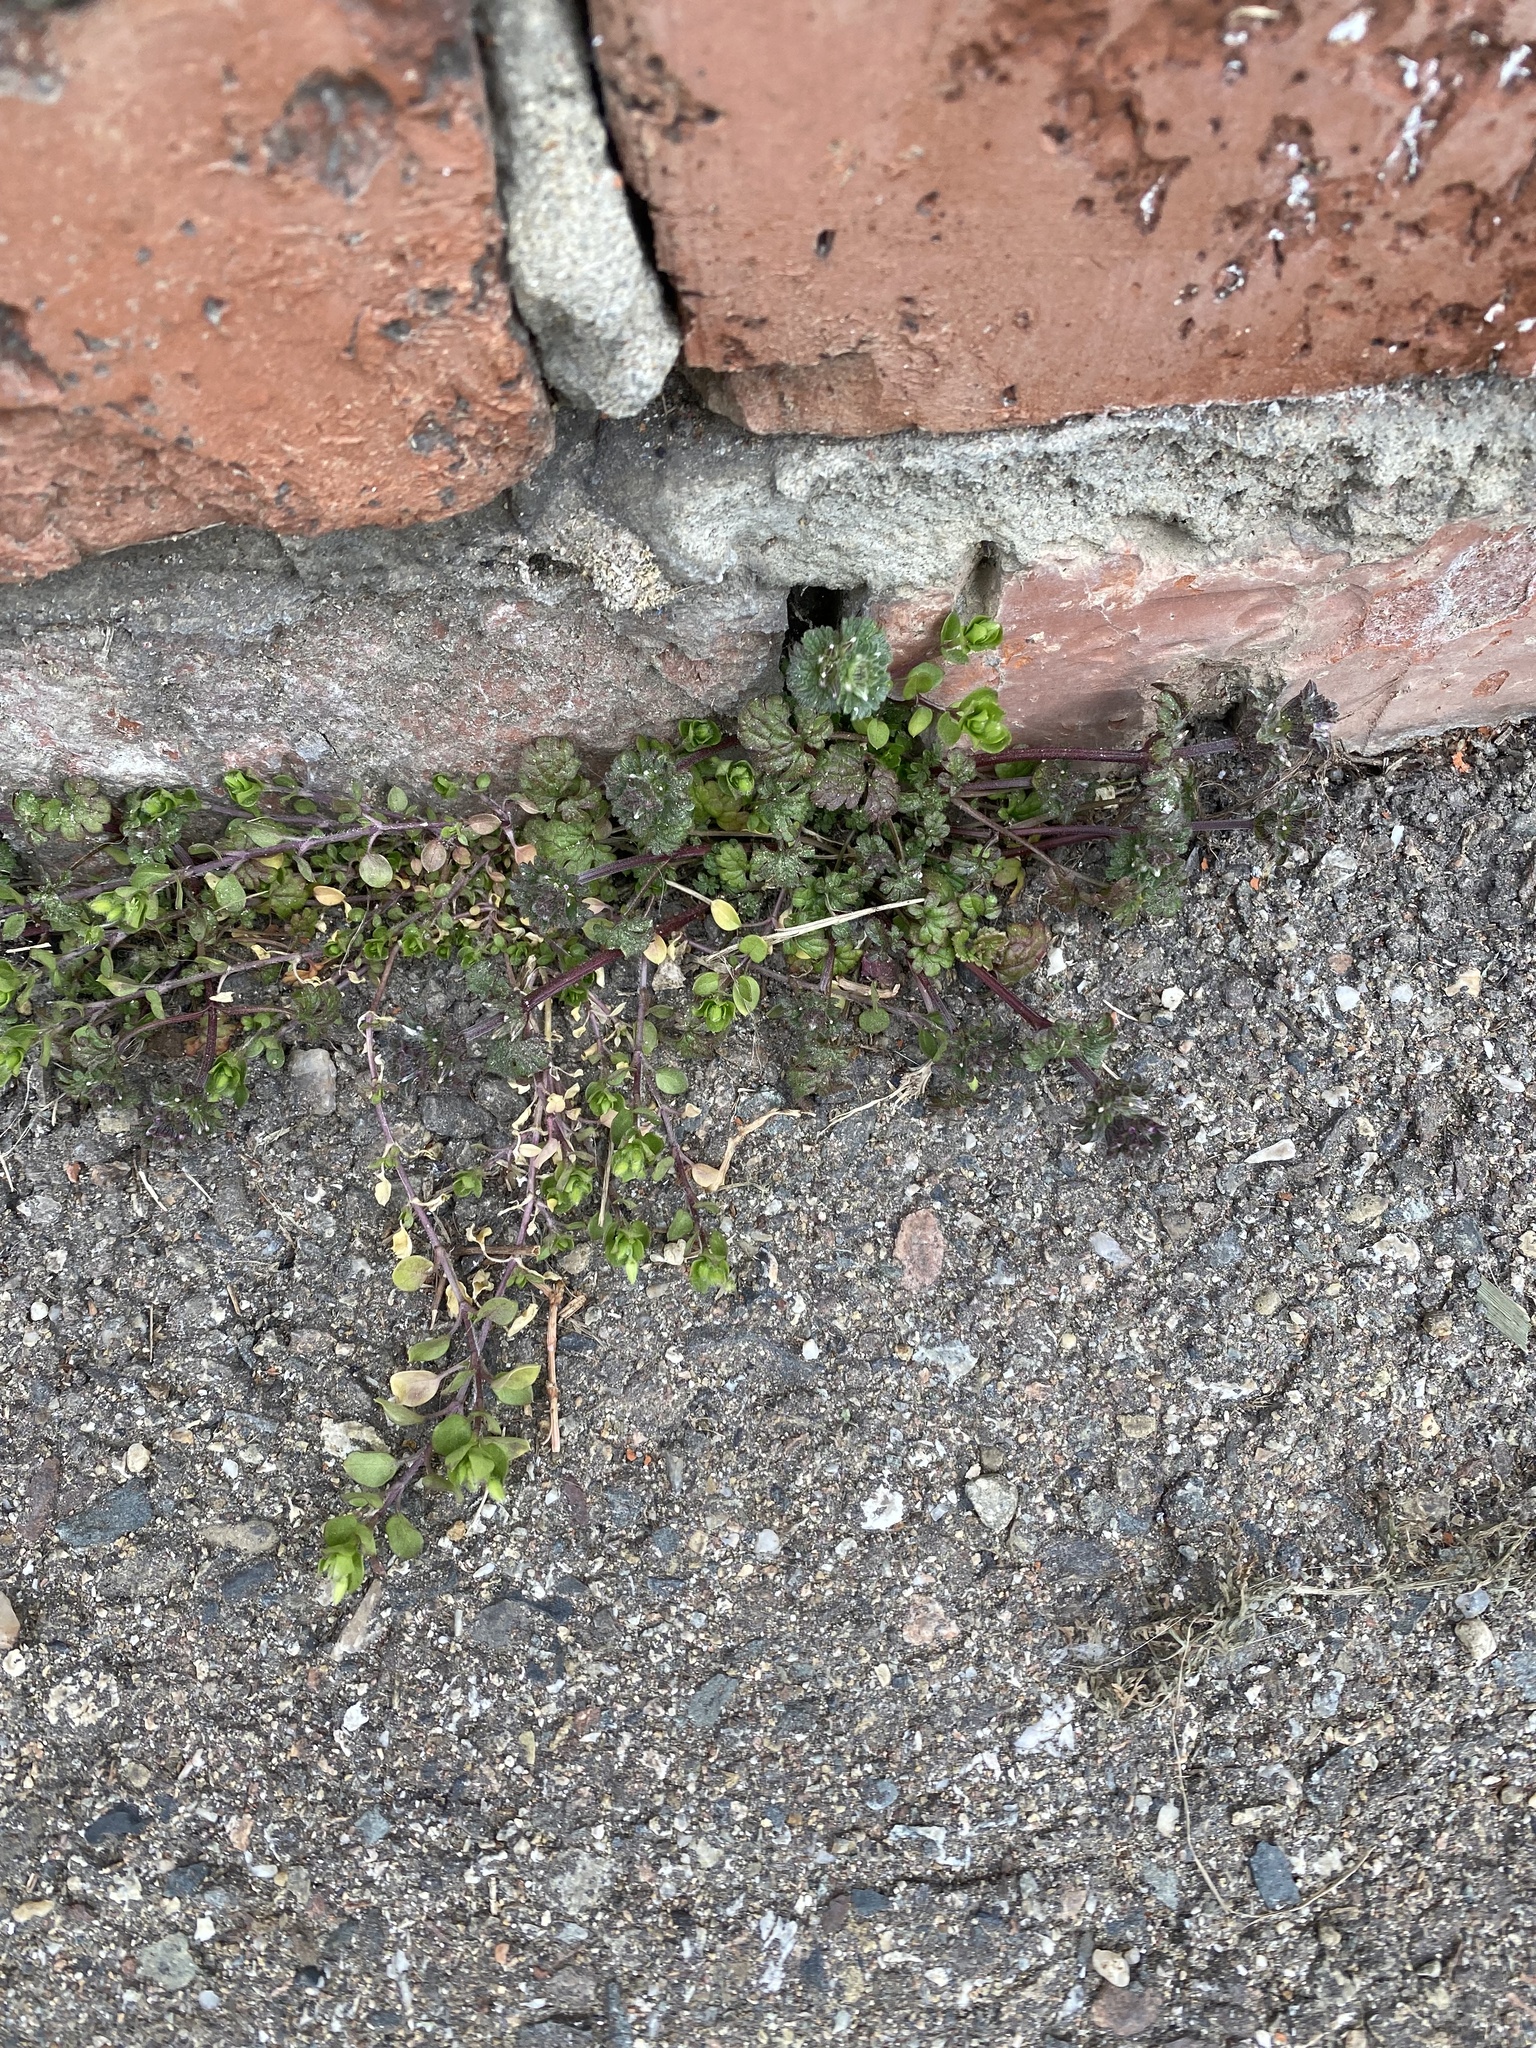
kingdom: Plantae
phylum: Tracheophyta
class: Magnoliopsida
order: Lamiales
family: Lamiaceae
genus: Lamium
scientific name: Lamium amplexicaule
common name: Henbit dead-nettle
